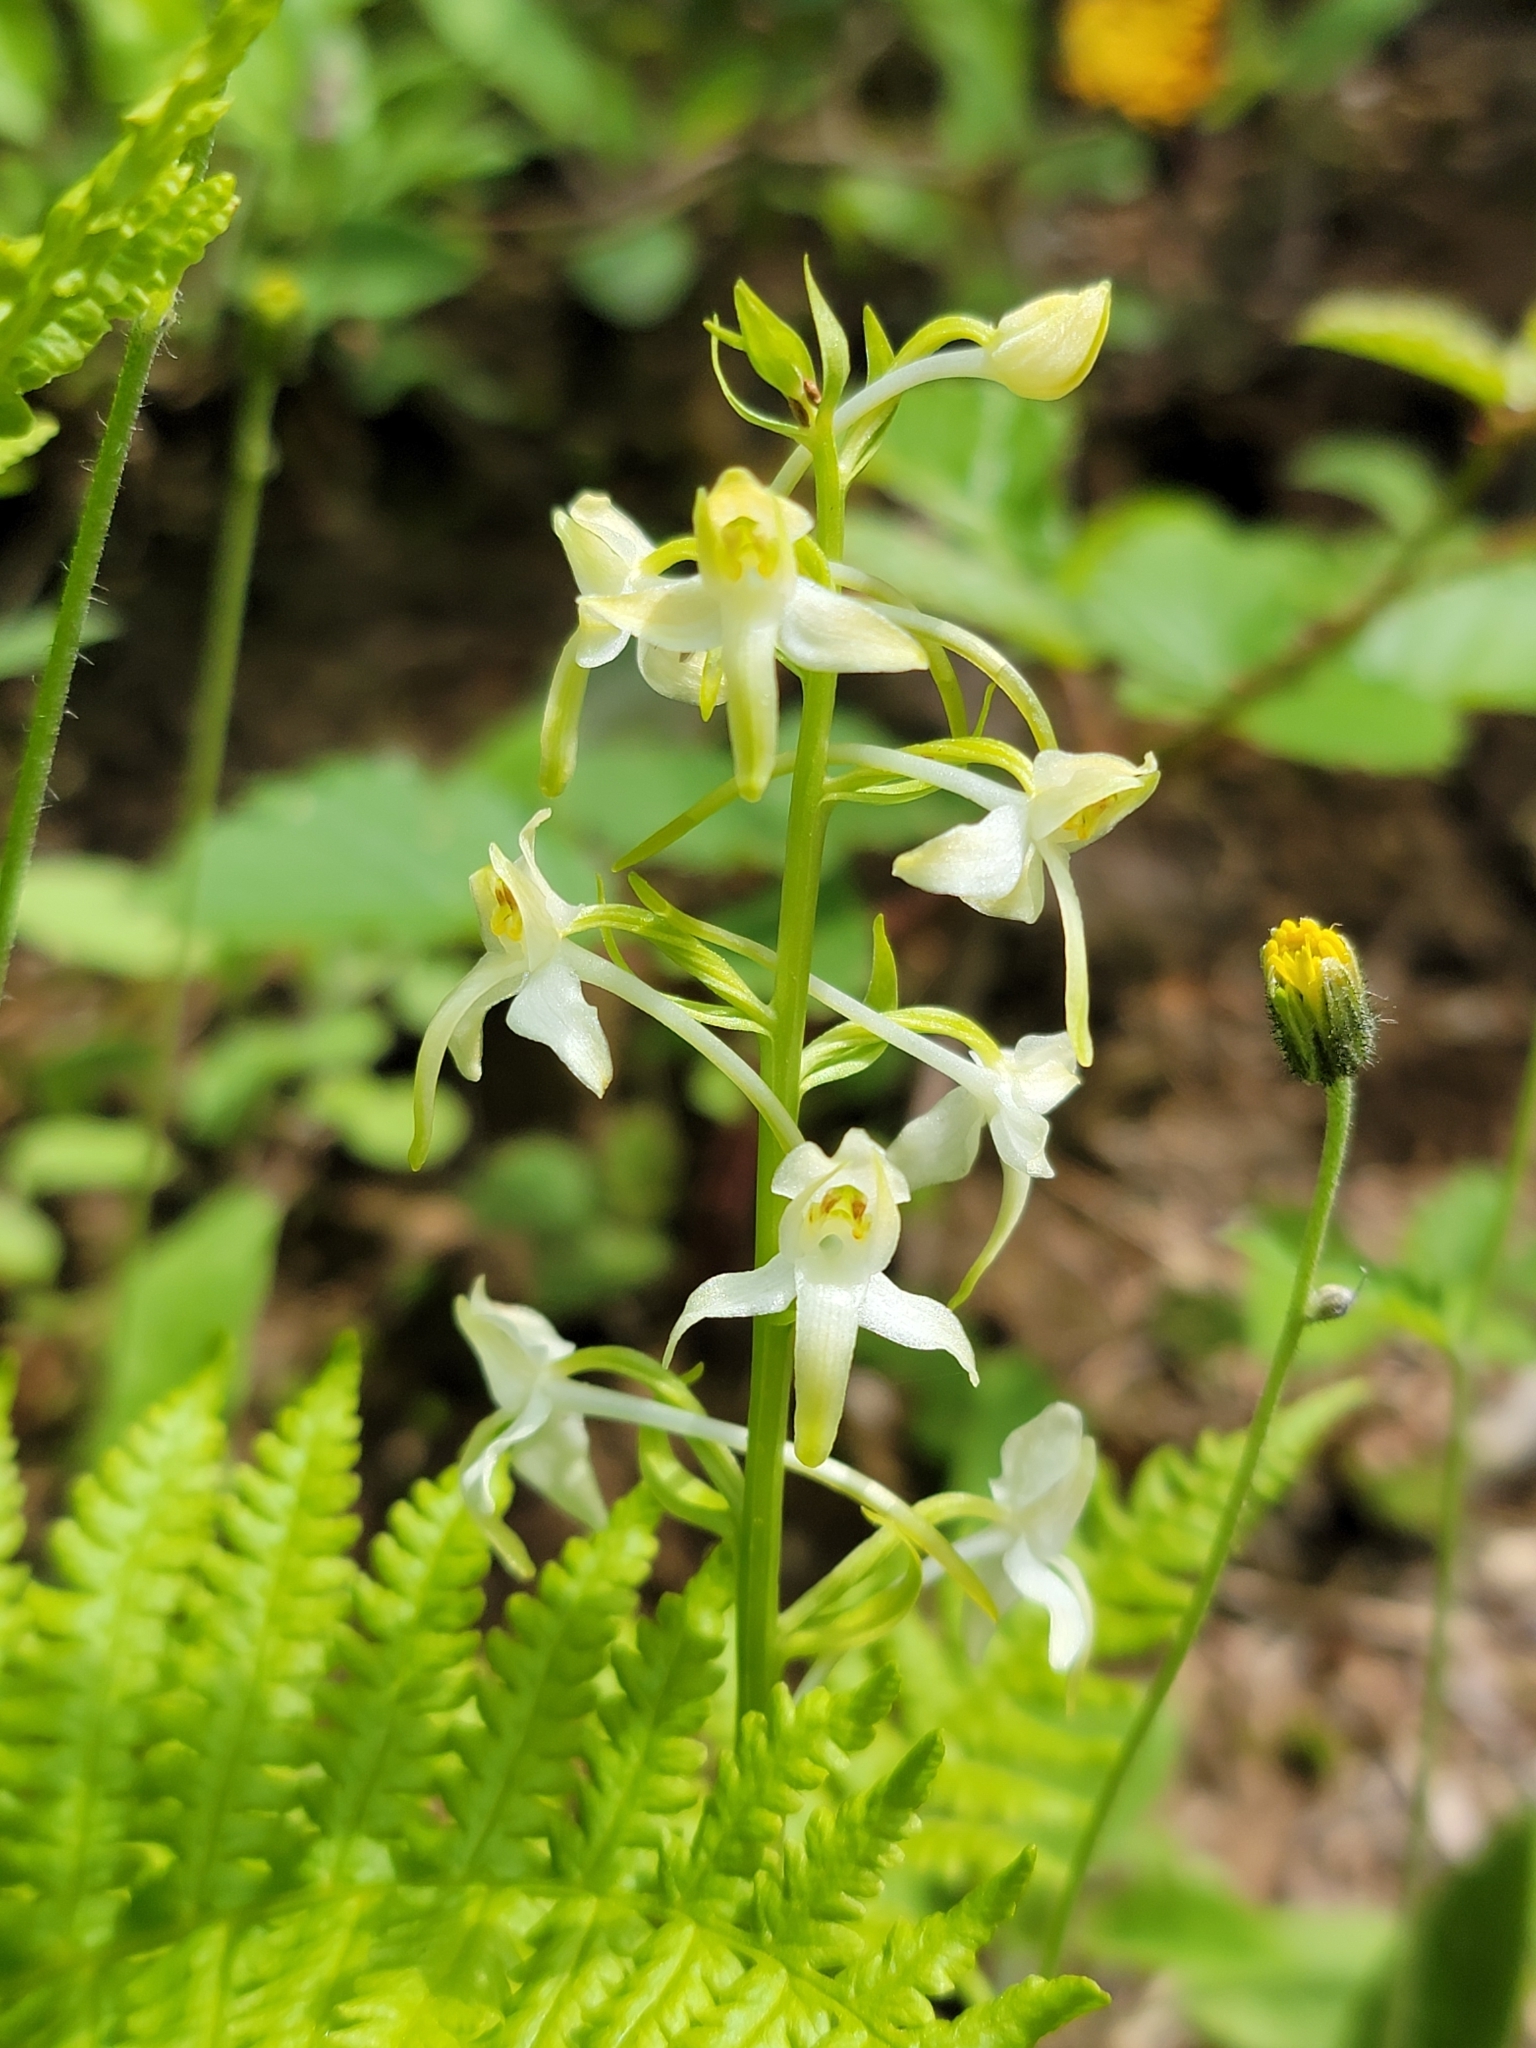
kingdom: Plantae
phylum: Tracheophyta
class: Liliopsida
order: Asparagales
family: Orchidaceae
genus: Platanthera
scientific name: Platanthera hybrida
